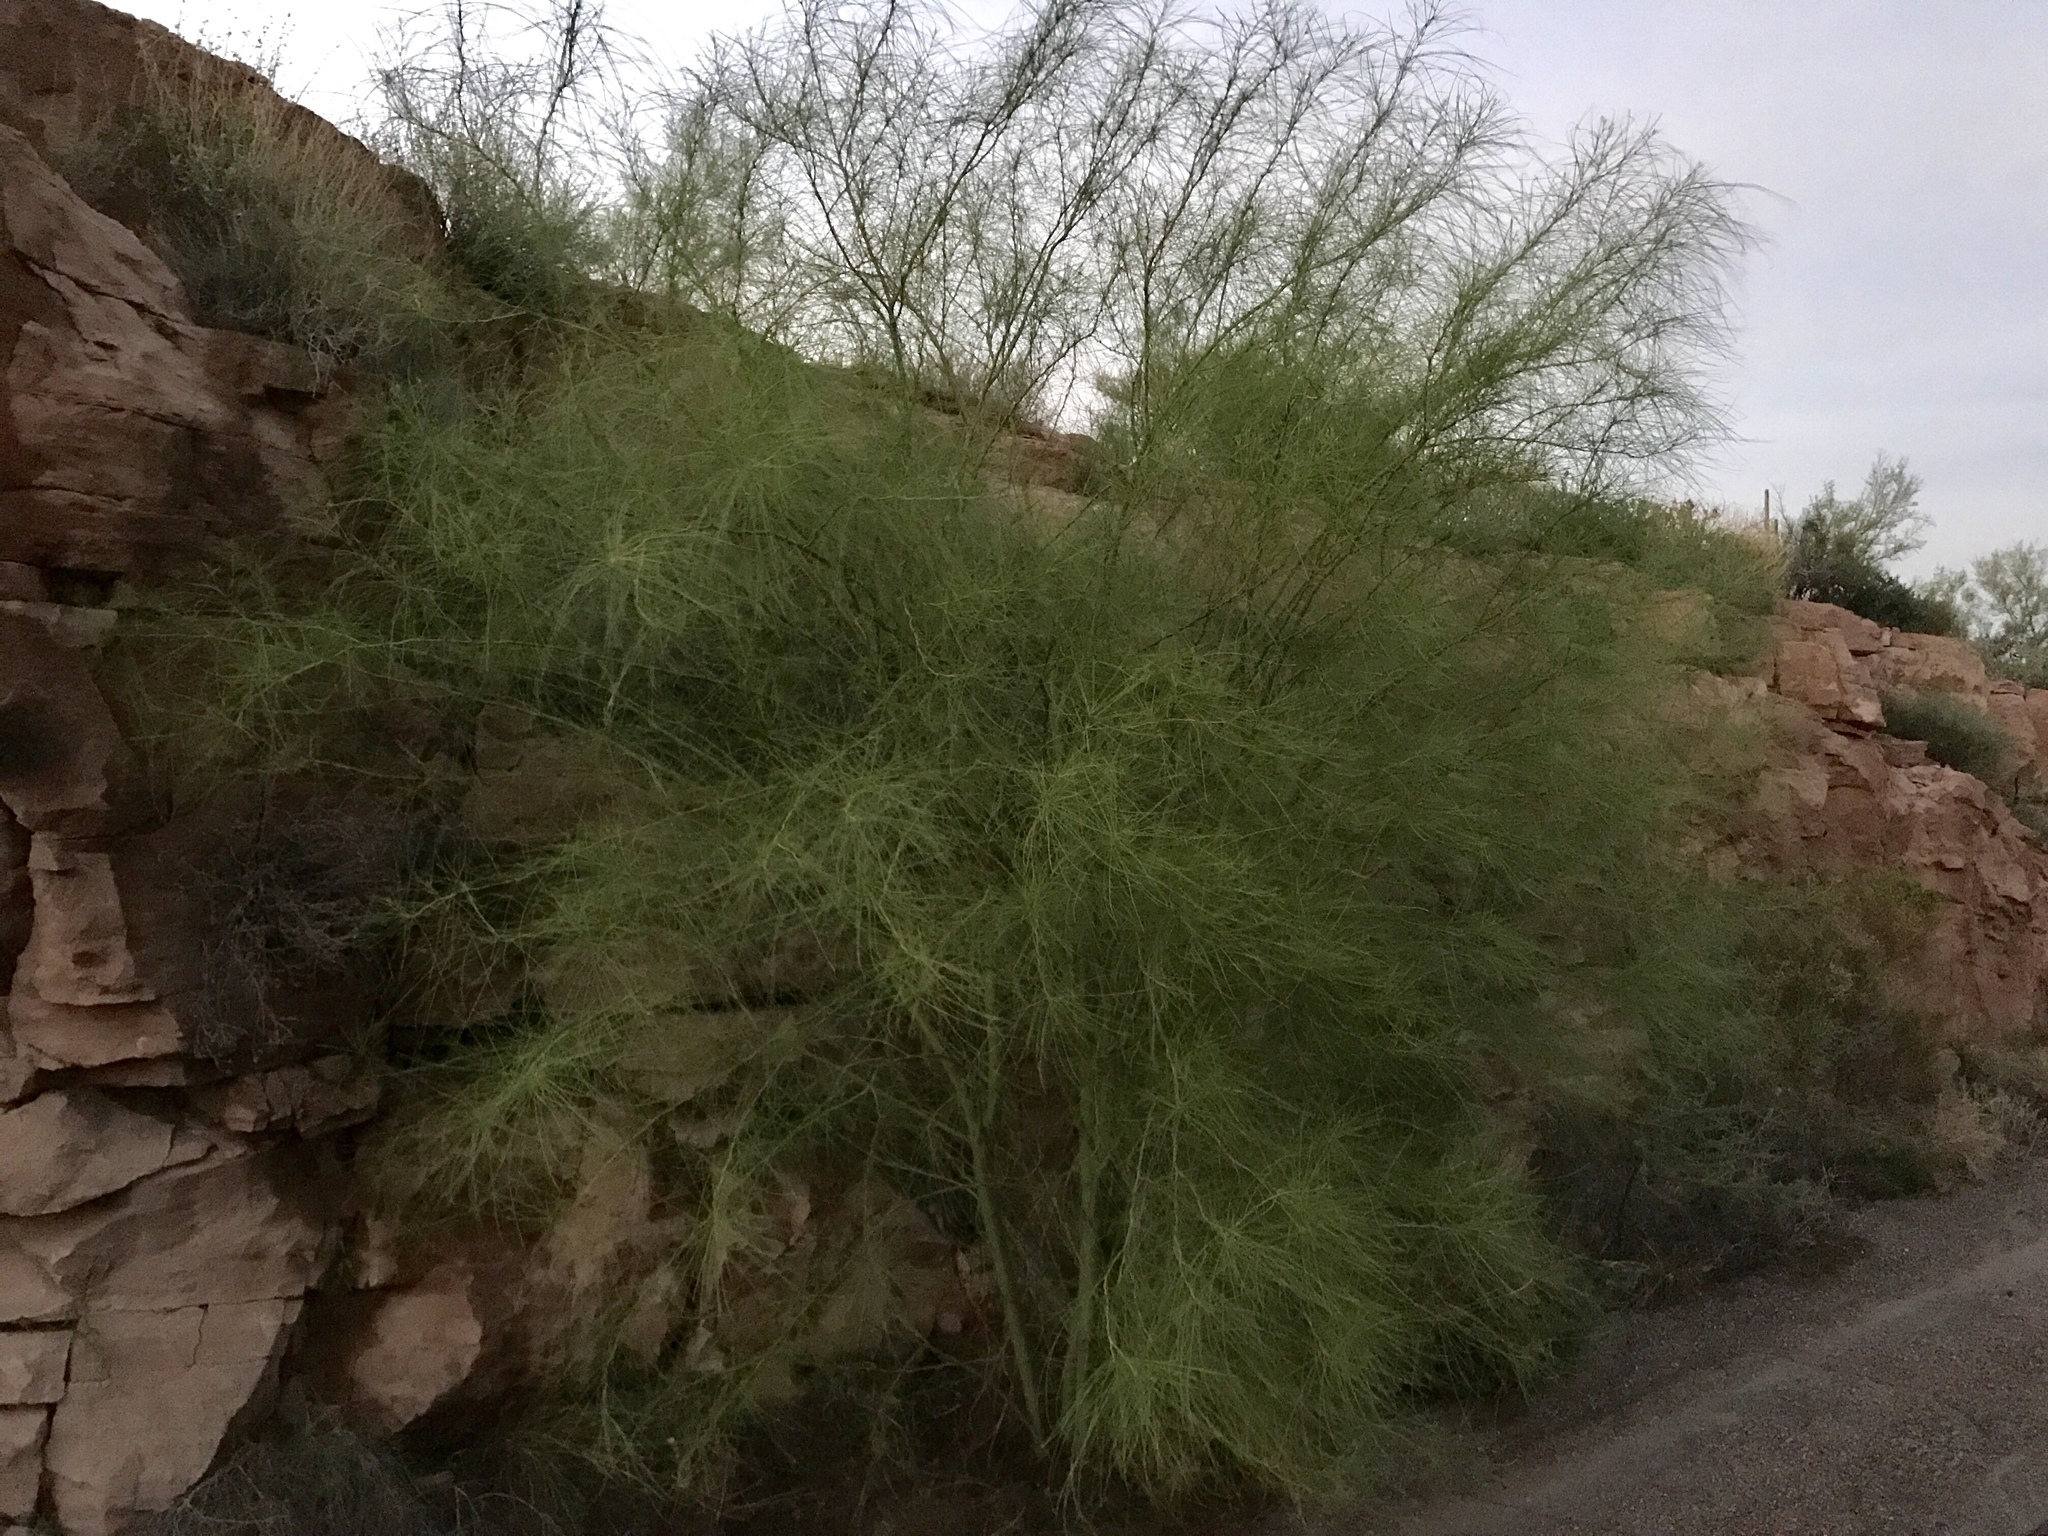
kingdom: Plantae
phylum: Tracheophyta
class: Magnoliopsida
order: Fabales
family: Fabaceae
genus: Parkinsonia
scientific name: Parkinsonia aculeata
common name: Jerusalem thorn
